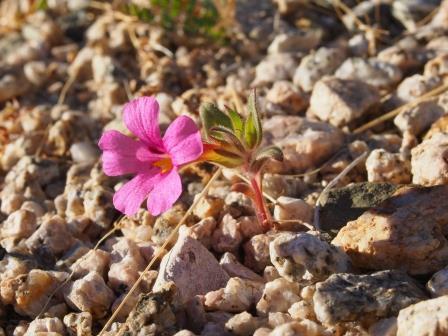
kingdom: Plantae
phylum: Tracheophyta
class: Magnoliopsida
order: Lamiales
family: Phrymaceae
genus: Diplacus
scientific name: Diplacus bigelovii
